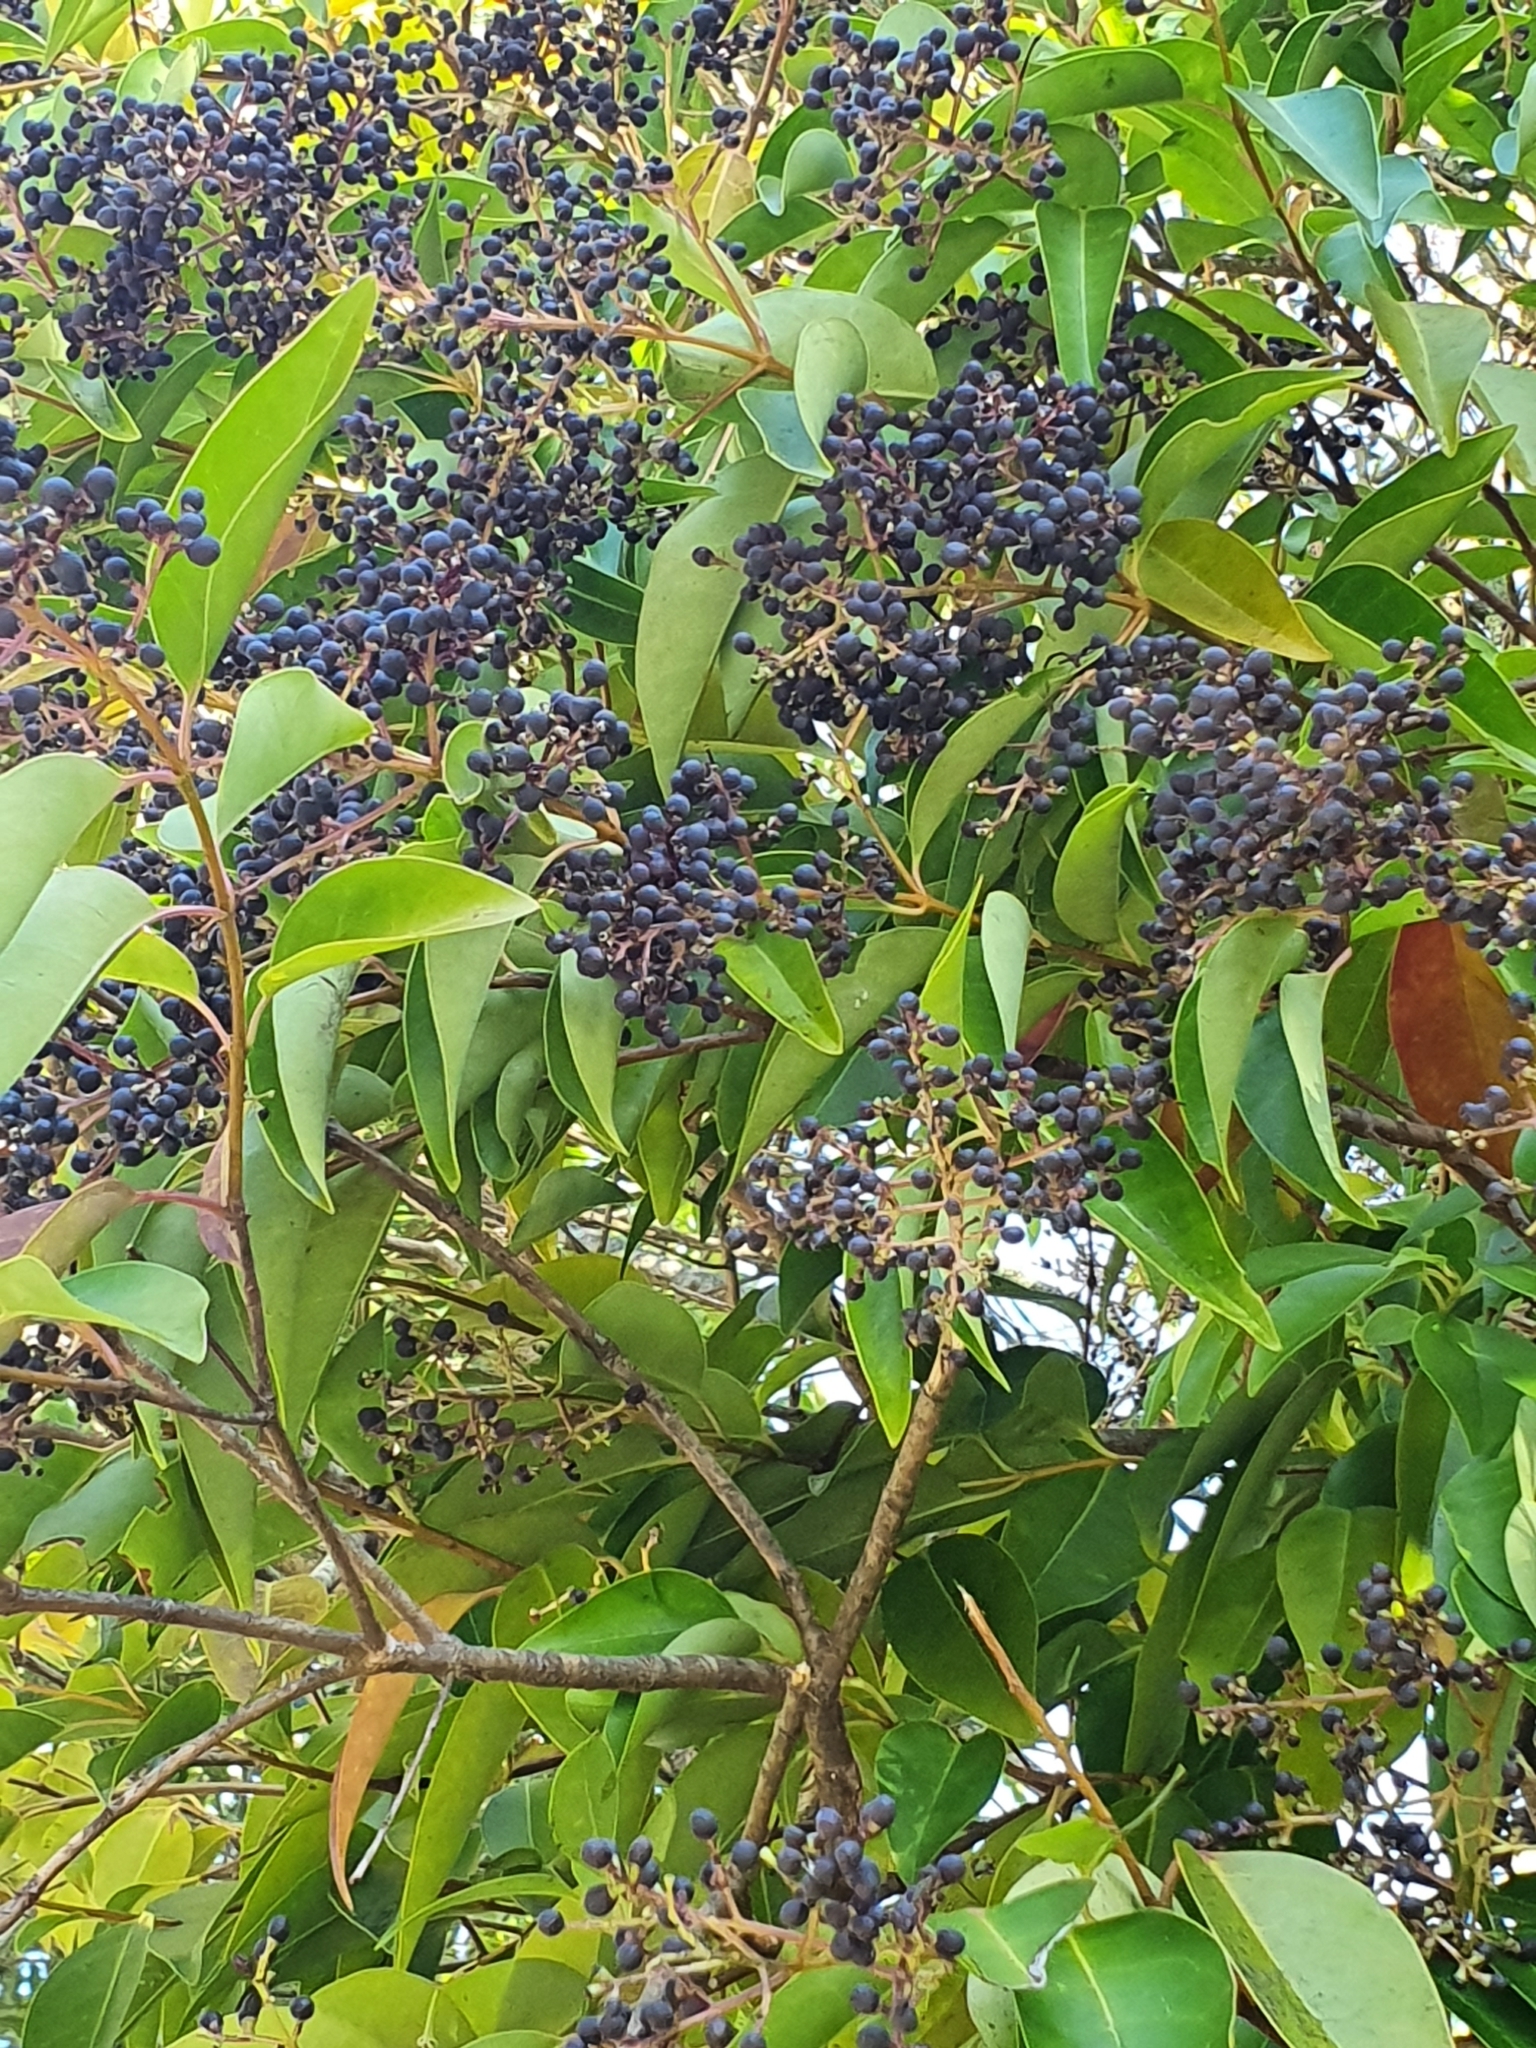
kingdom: Plantae
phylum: Tracheophyta
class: Magnoliopsida
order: Lamiales
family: Oleaceae
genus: Ligustrum
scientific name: Ligustrum lucidum
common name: Glossy privet
